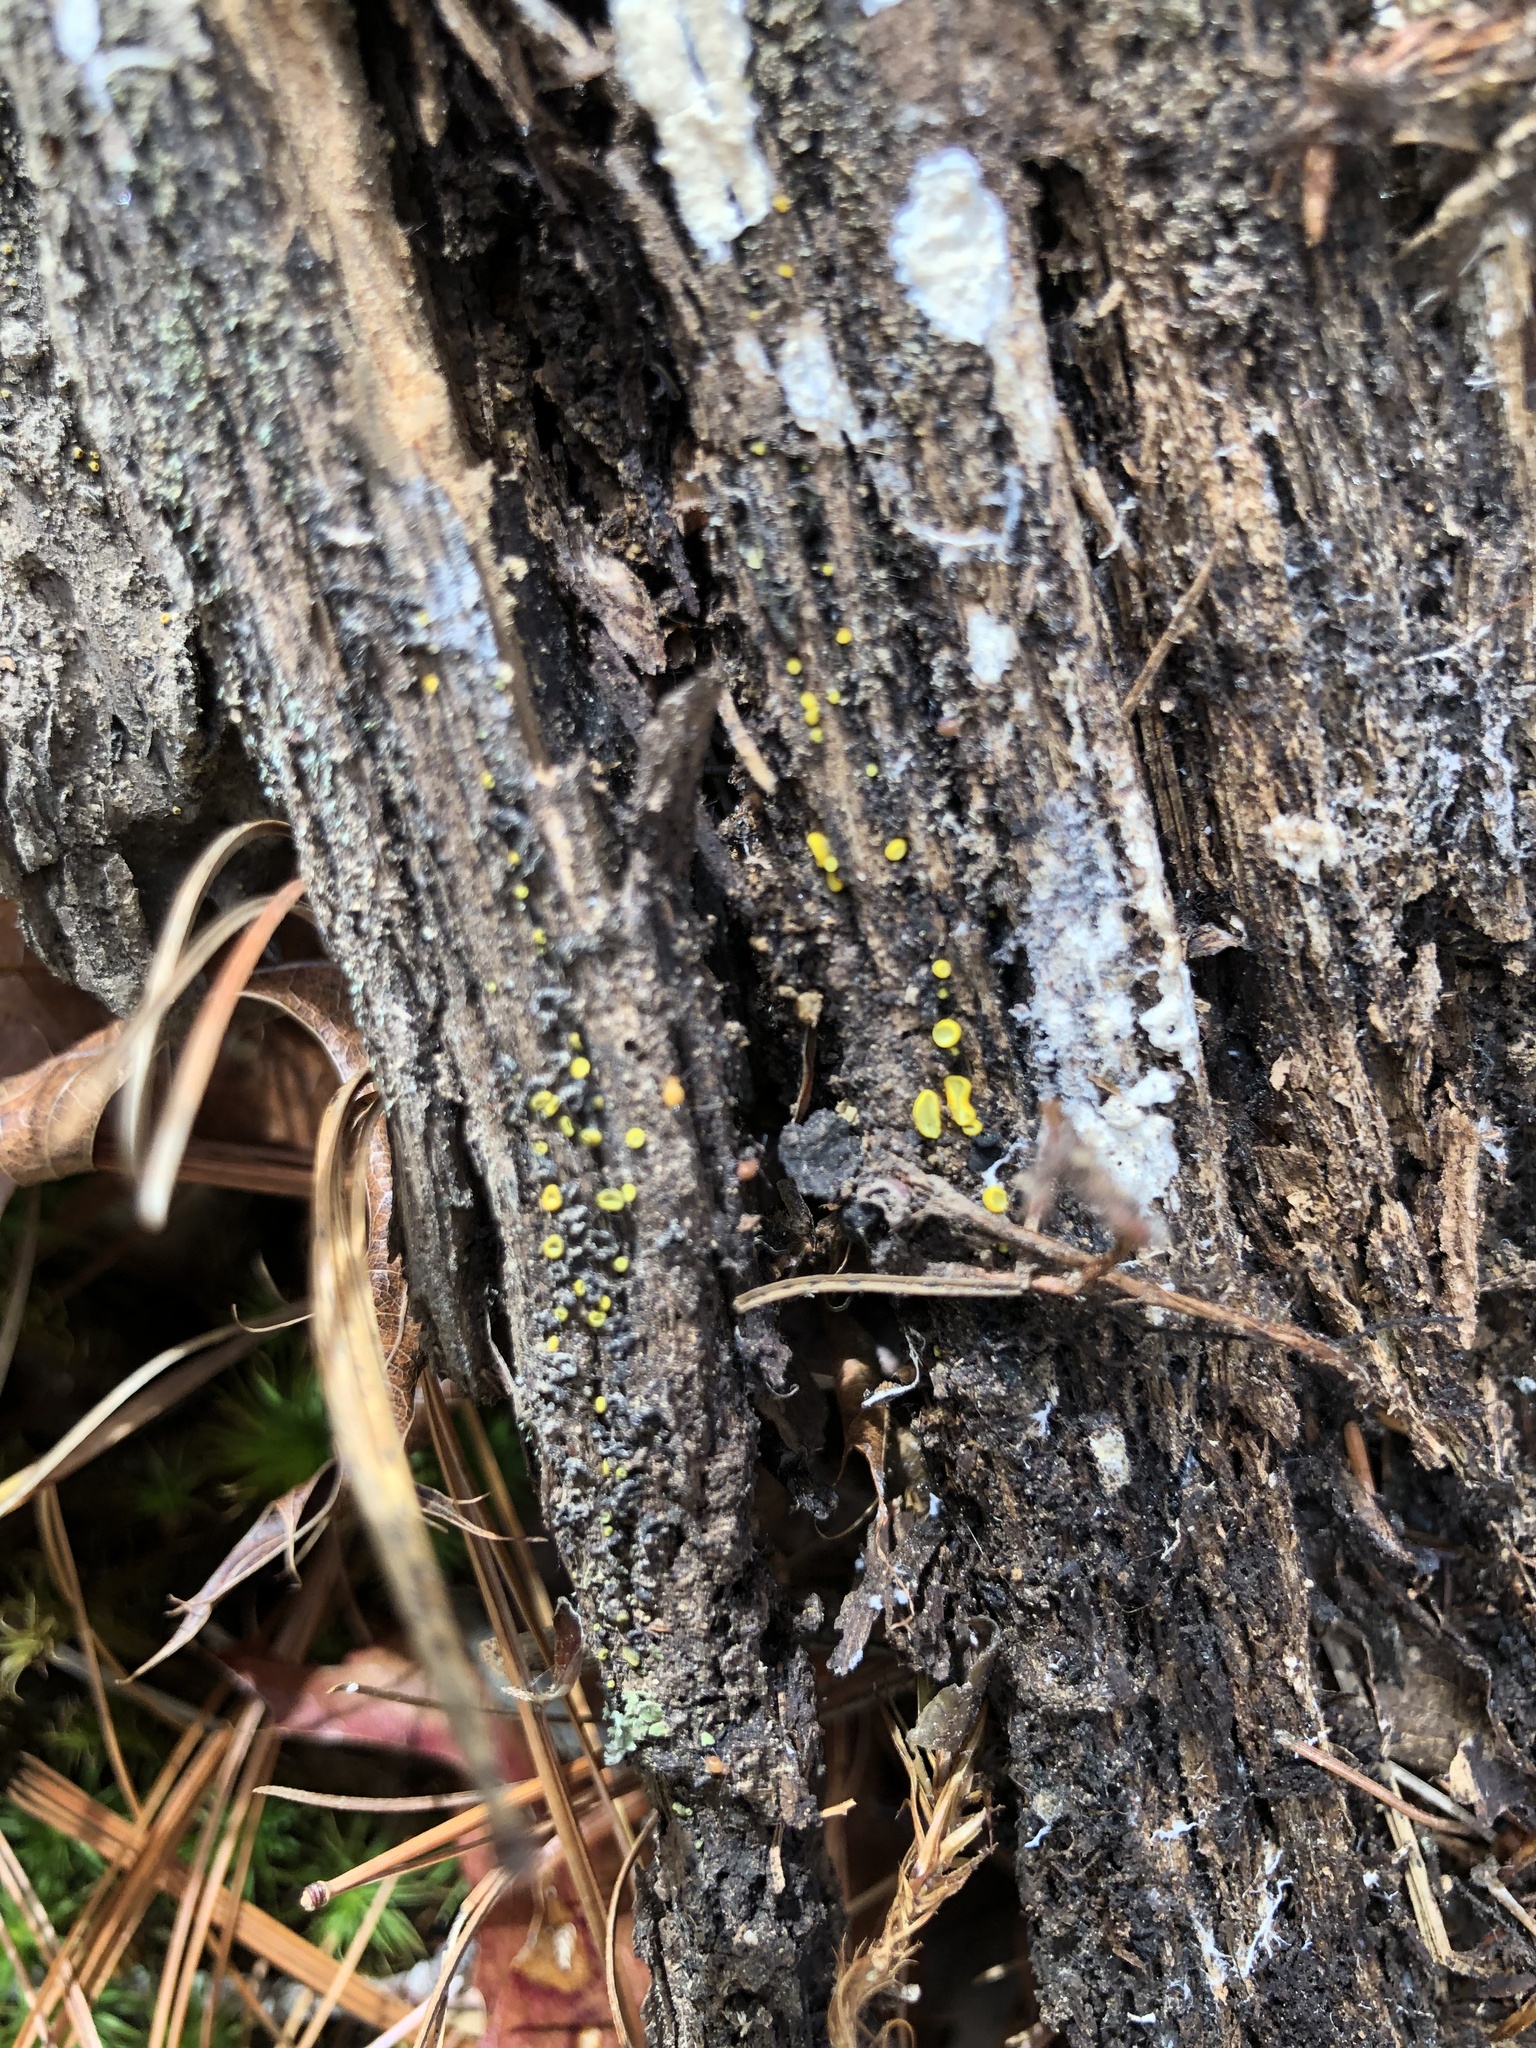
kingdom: Fungi
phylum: Ascomycota
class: Leotiomycetes
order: Helotiales
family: Chlorospleniaceae
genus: Chlorosplenium
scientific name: Chlorosplenium chlora
